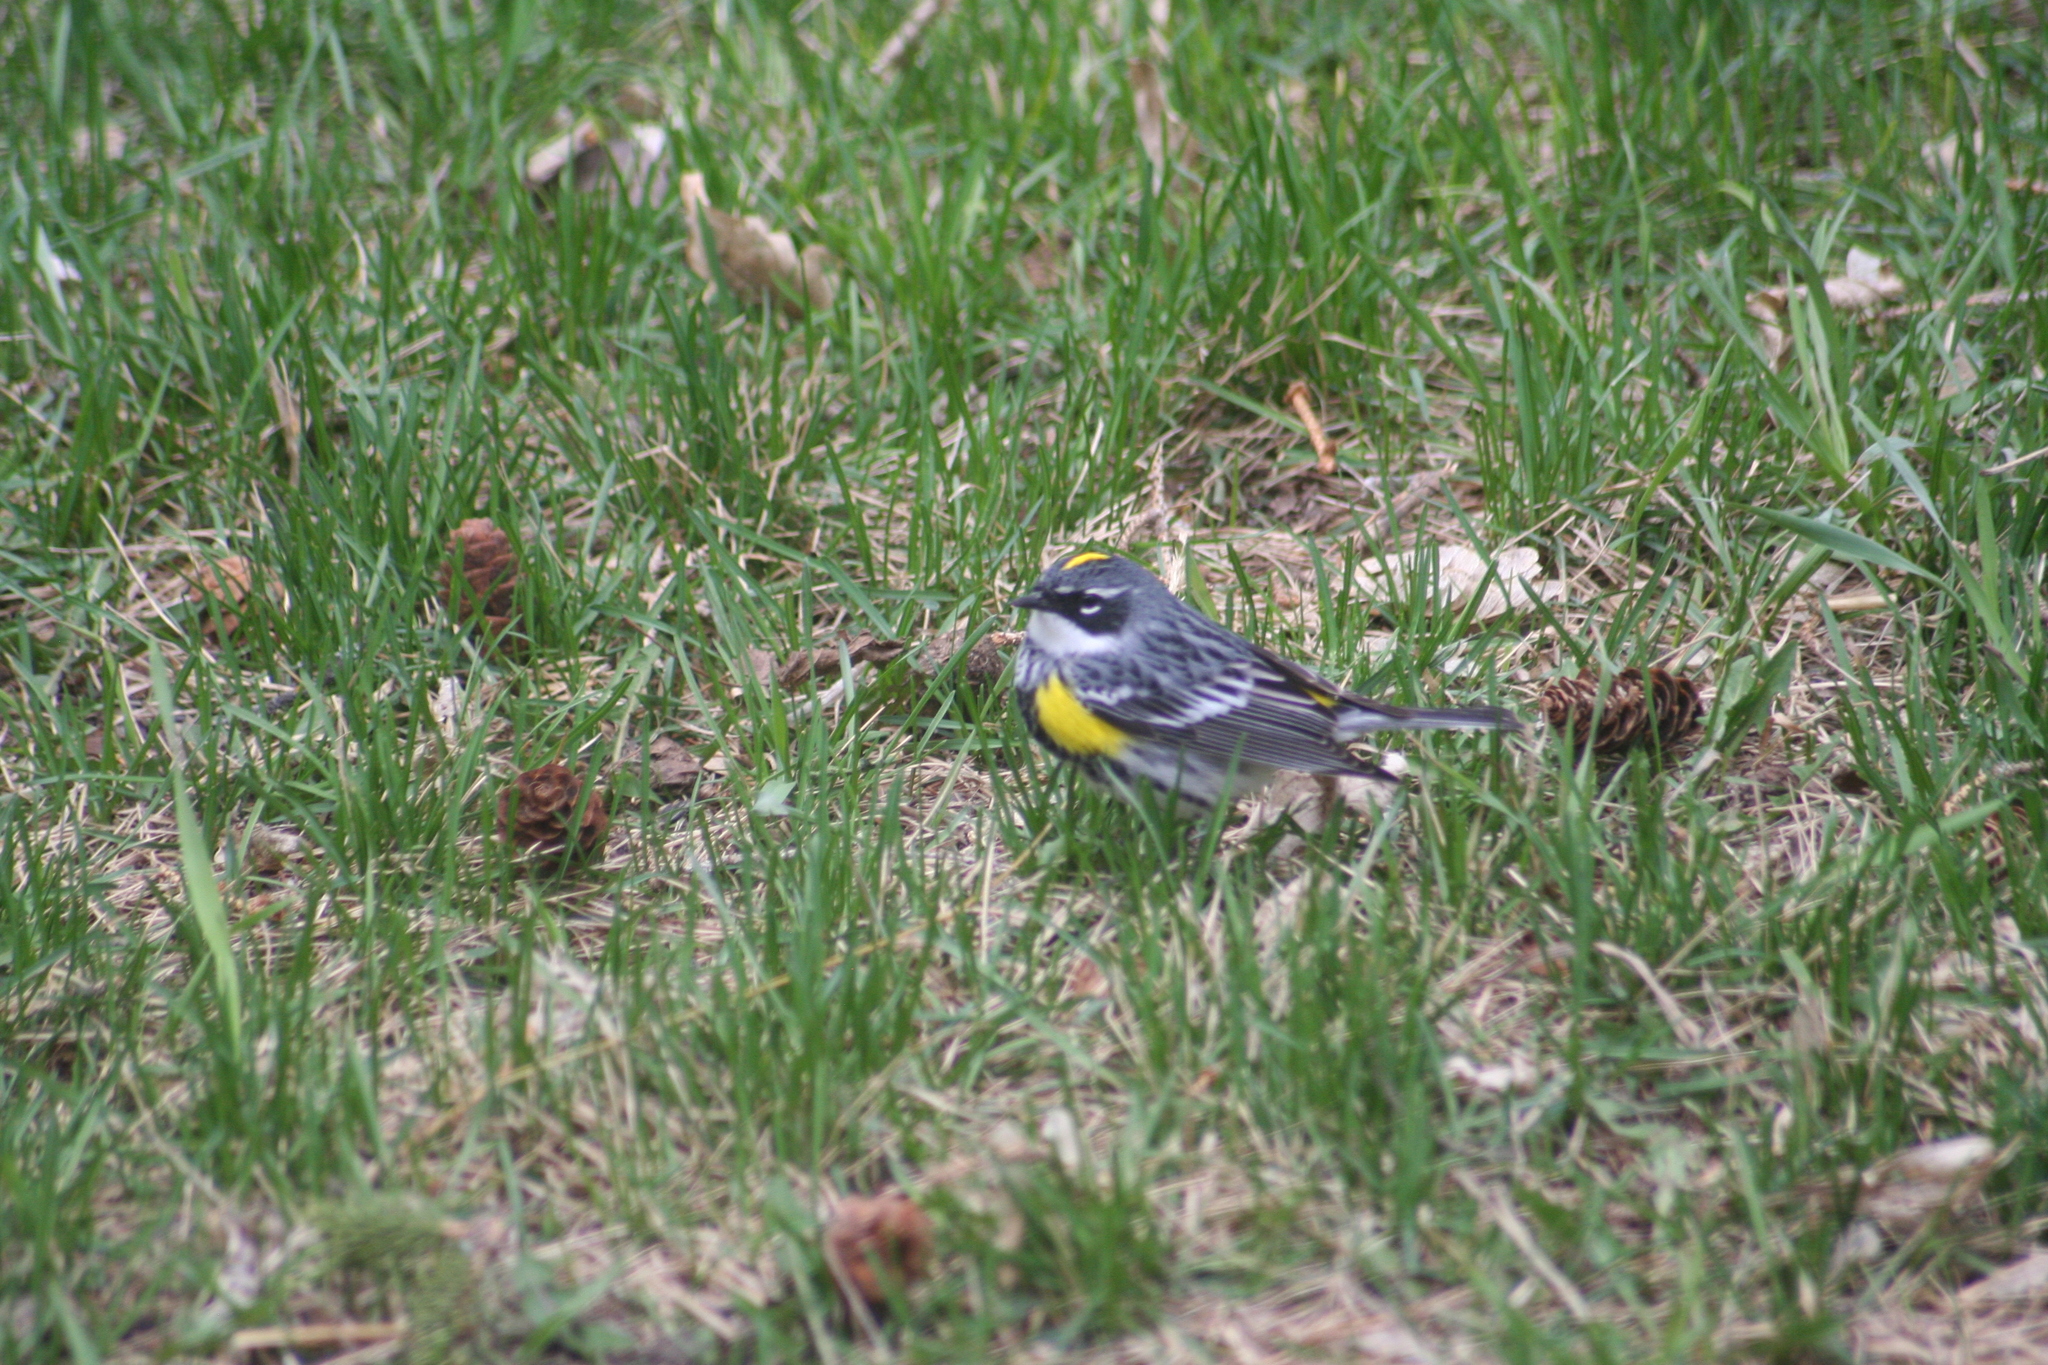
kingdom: Animalia
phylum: Chordata
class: Aves
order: Passeriformes
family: Parulidae
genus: Setophaga
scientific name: Setophaga coronata
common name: Myrtle warbler
